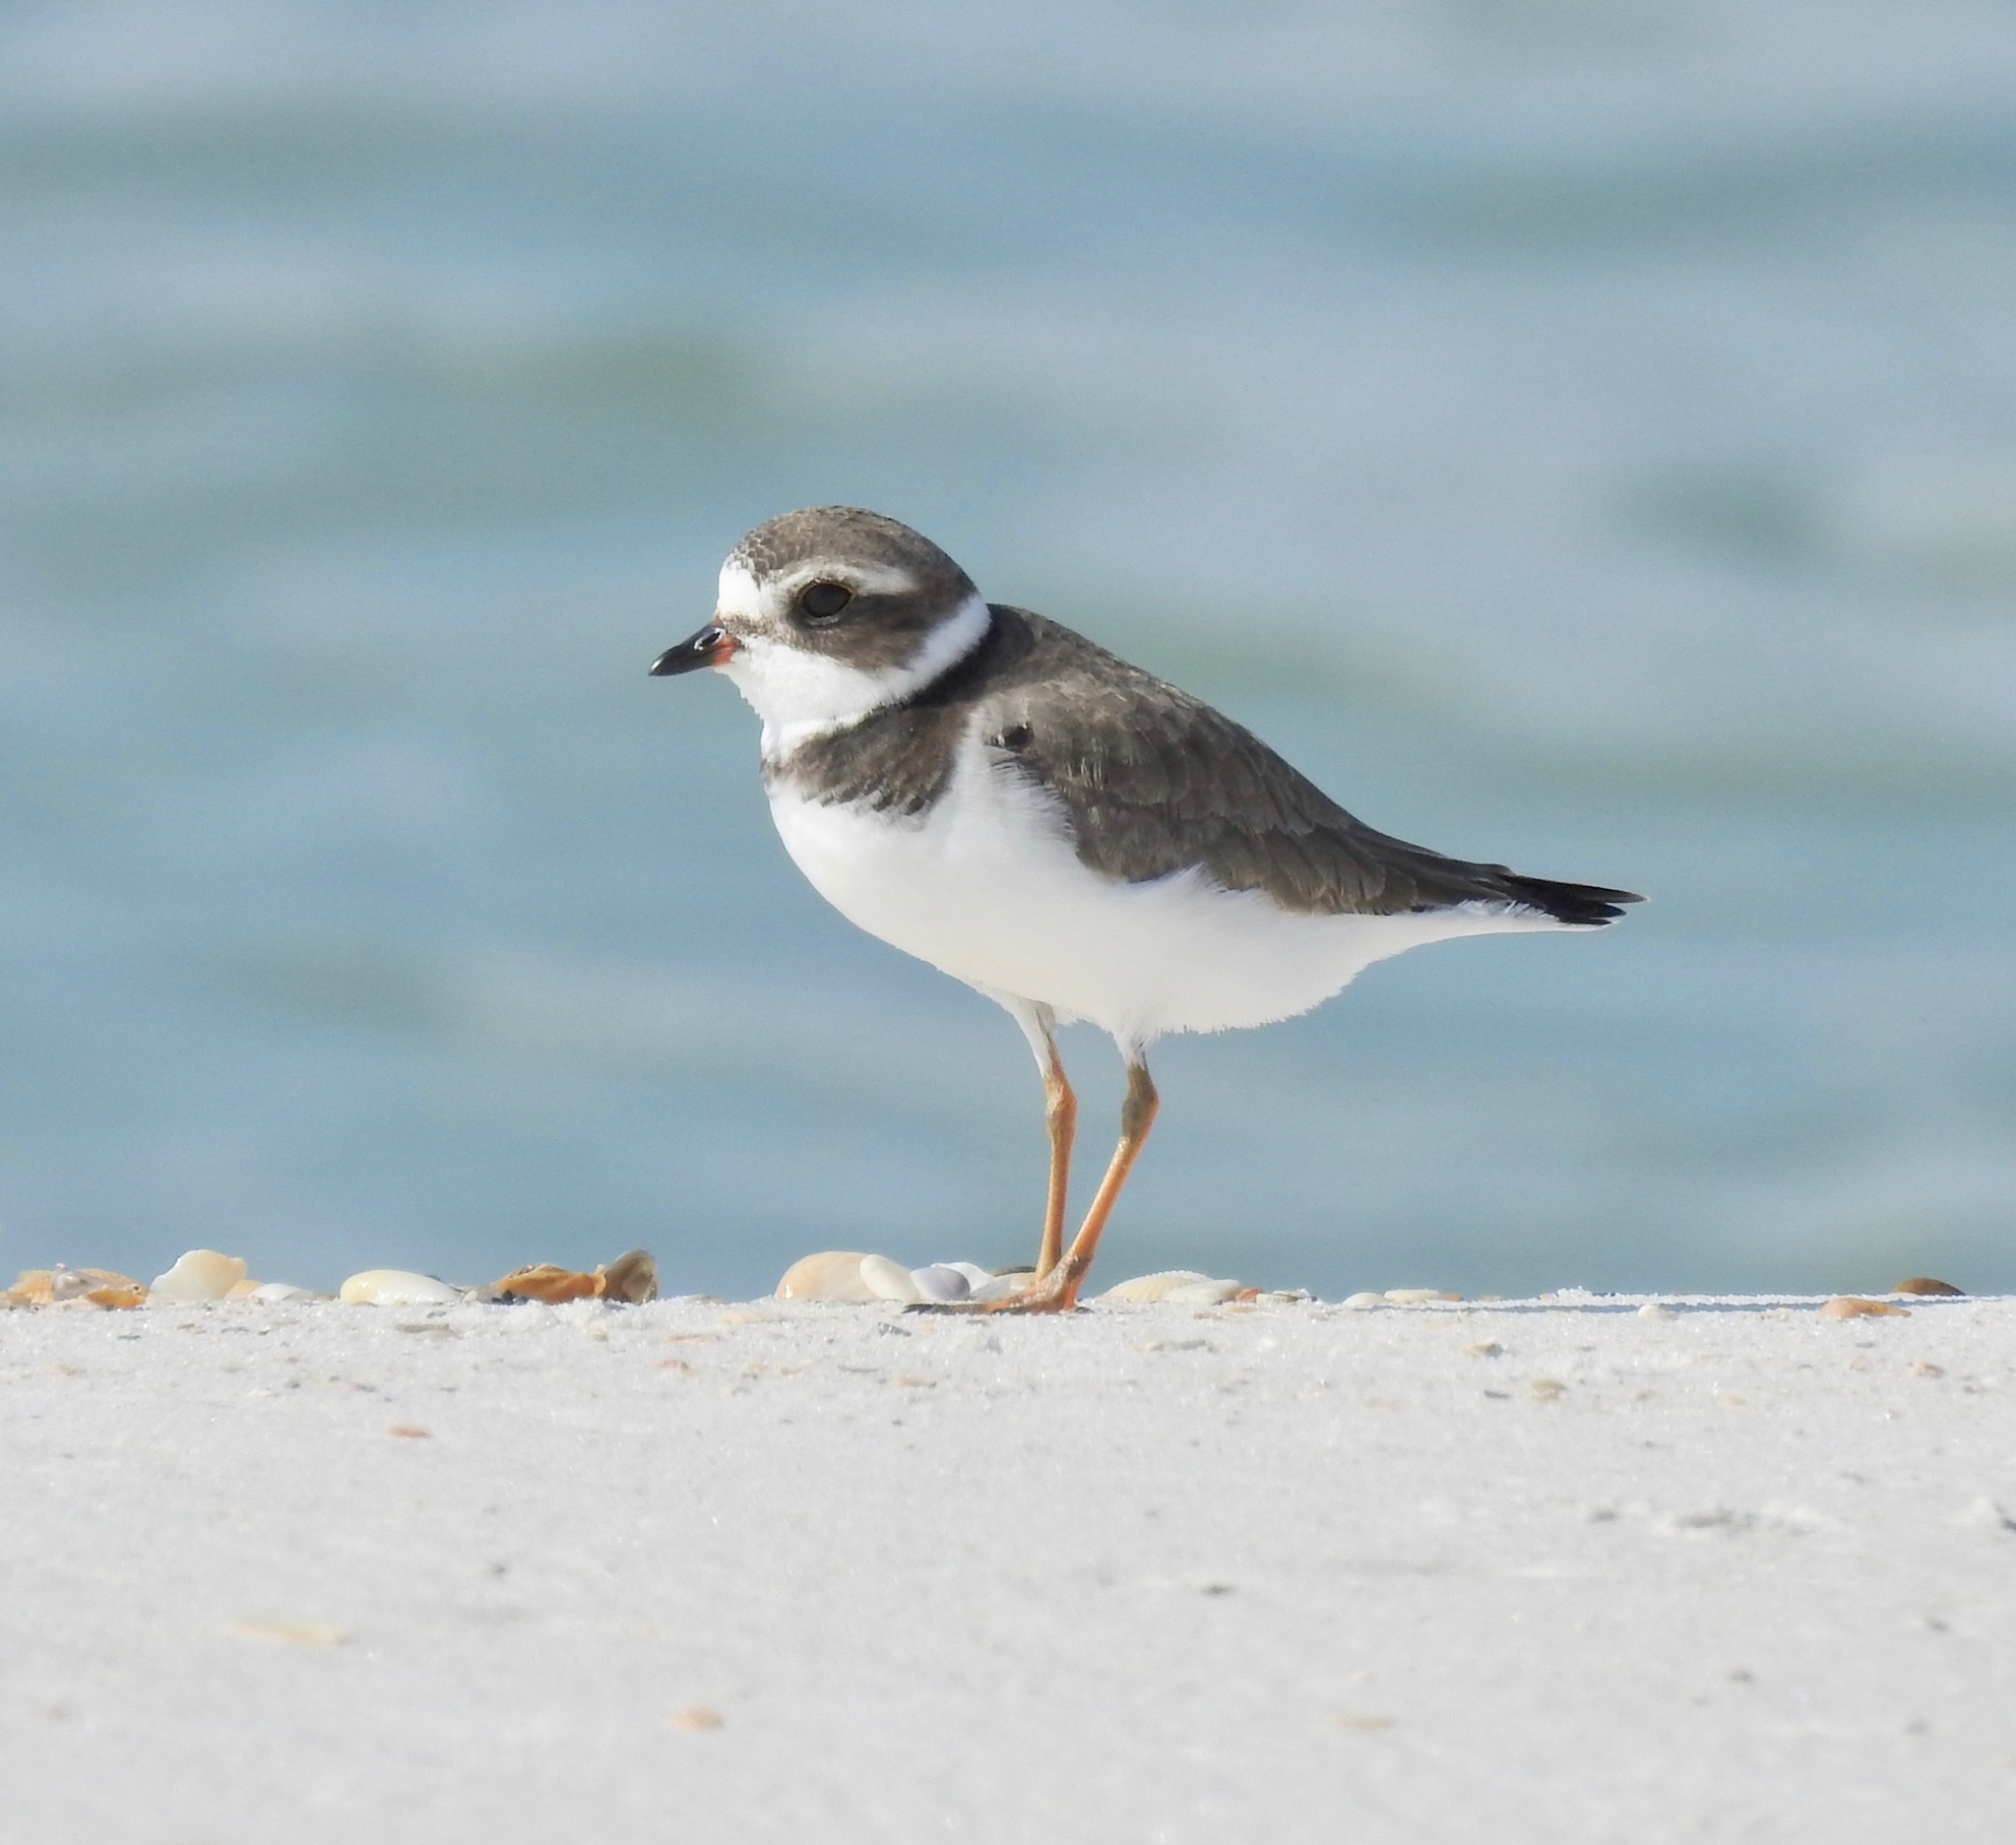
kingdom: Animalia
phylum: Chordata
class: Aves
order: Charadriiformes
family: Charadriidae
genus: Charadrius
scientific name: Charadrius semipalmatus
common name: Semipalmated plover
